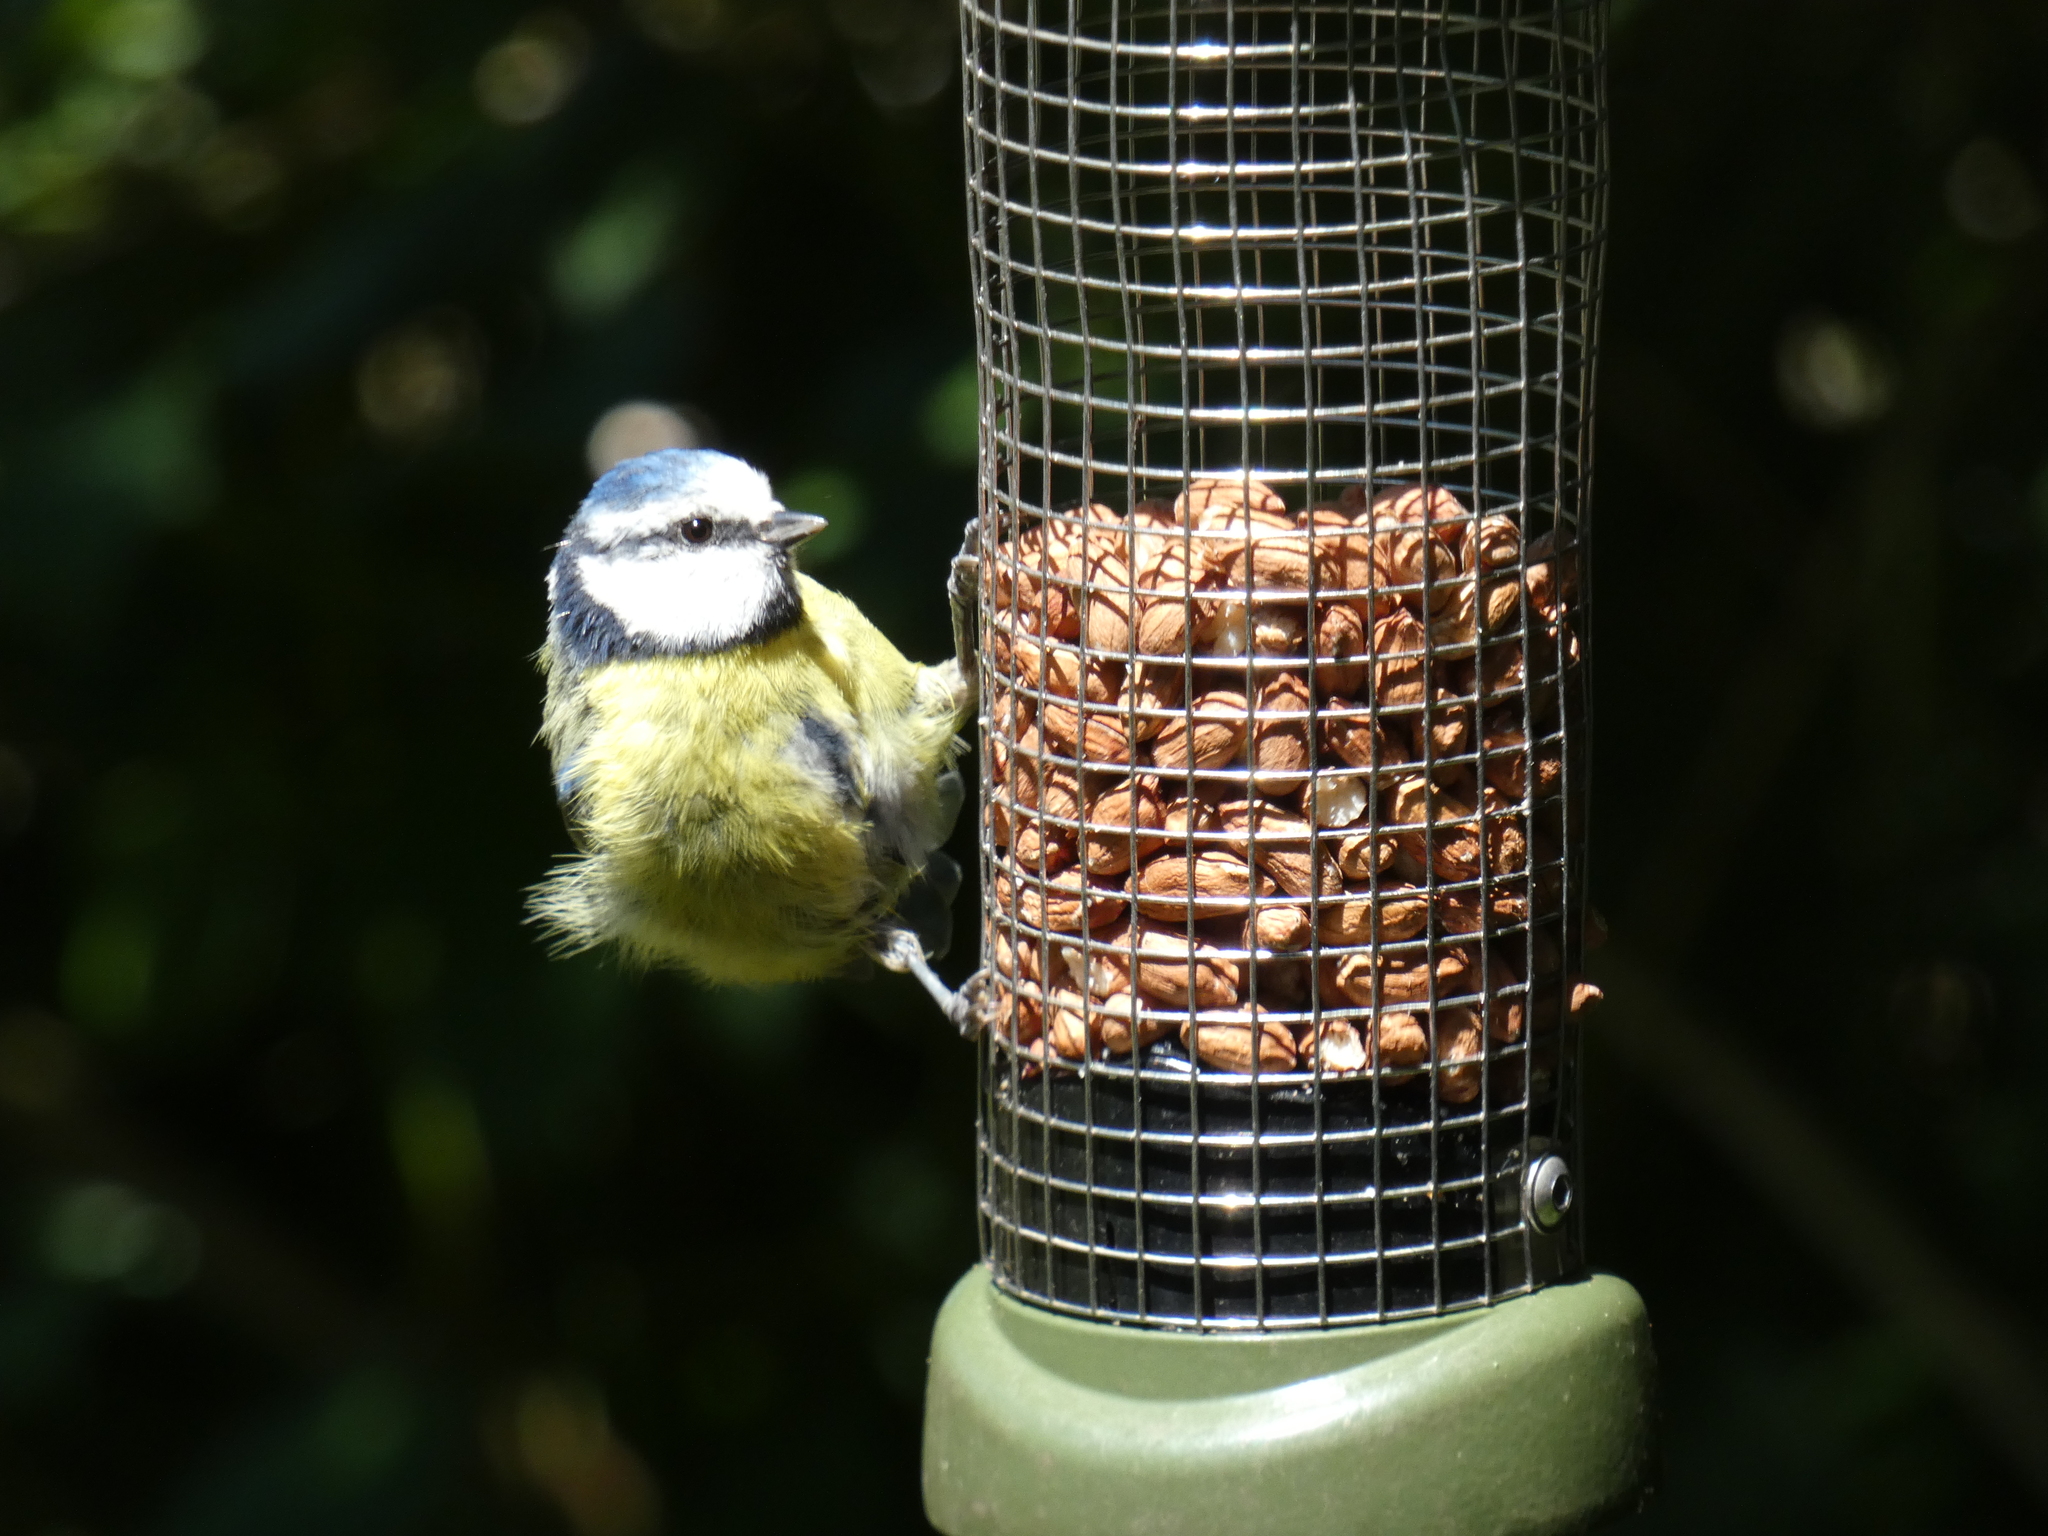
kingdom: Animalia
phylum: Chordata
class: Aves
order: Passeriformes
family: Paridae
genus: Cyanistes
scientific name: Cyanistes caeruleus
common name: Eurasian blue tit
